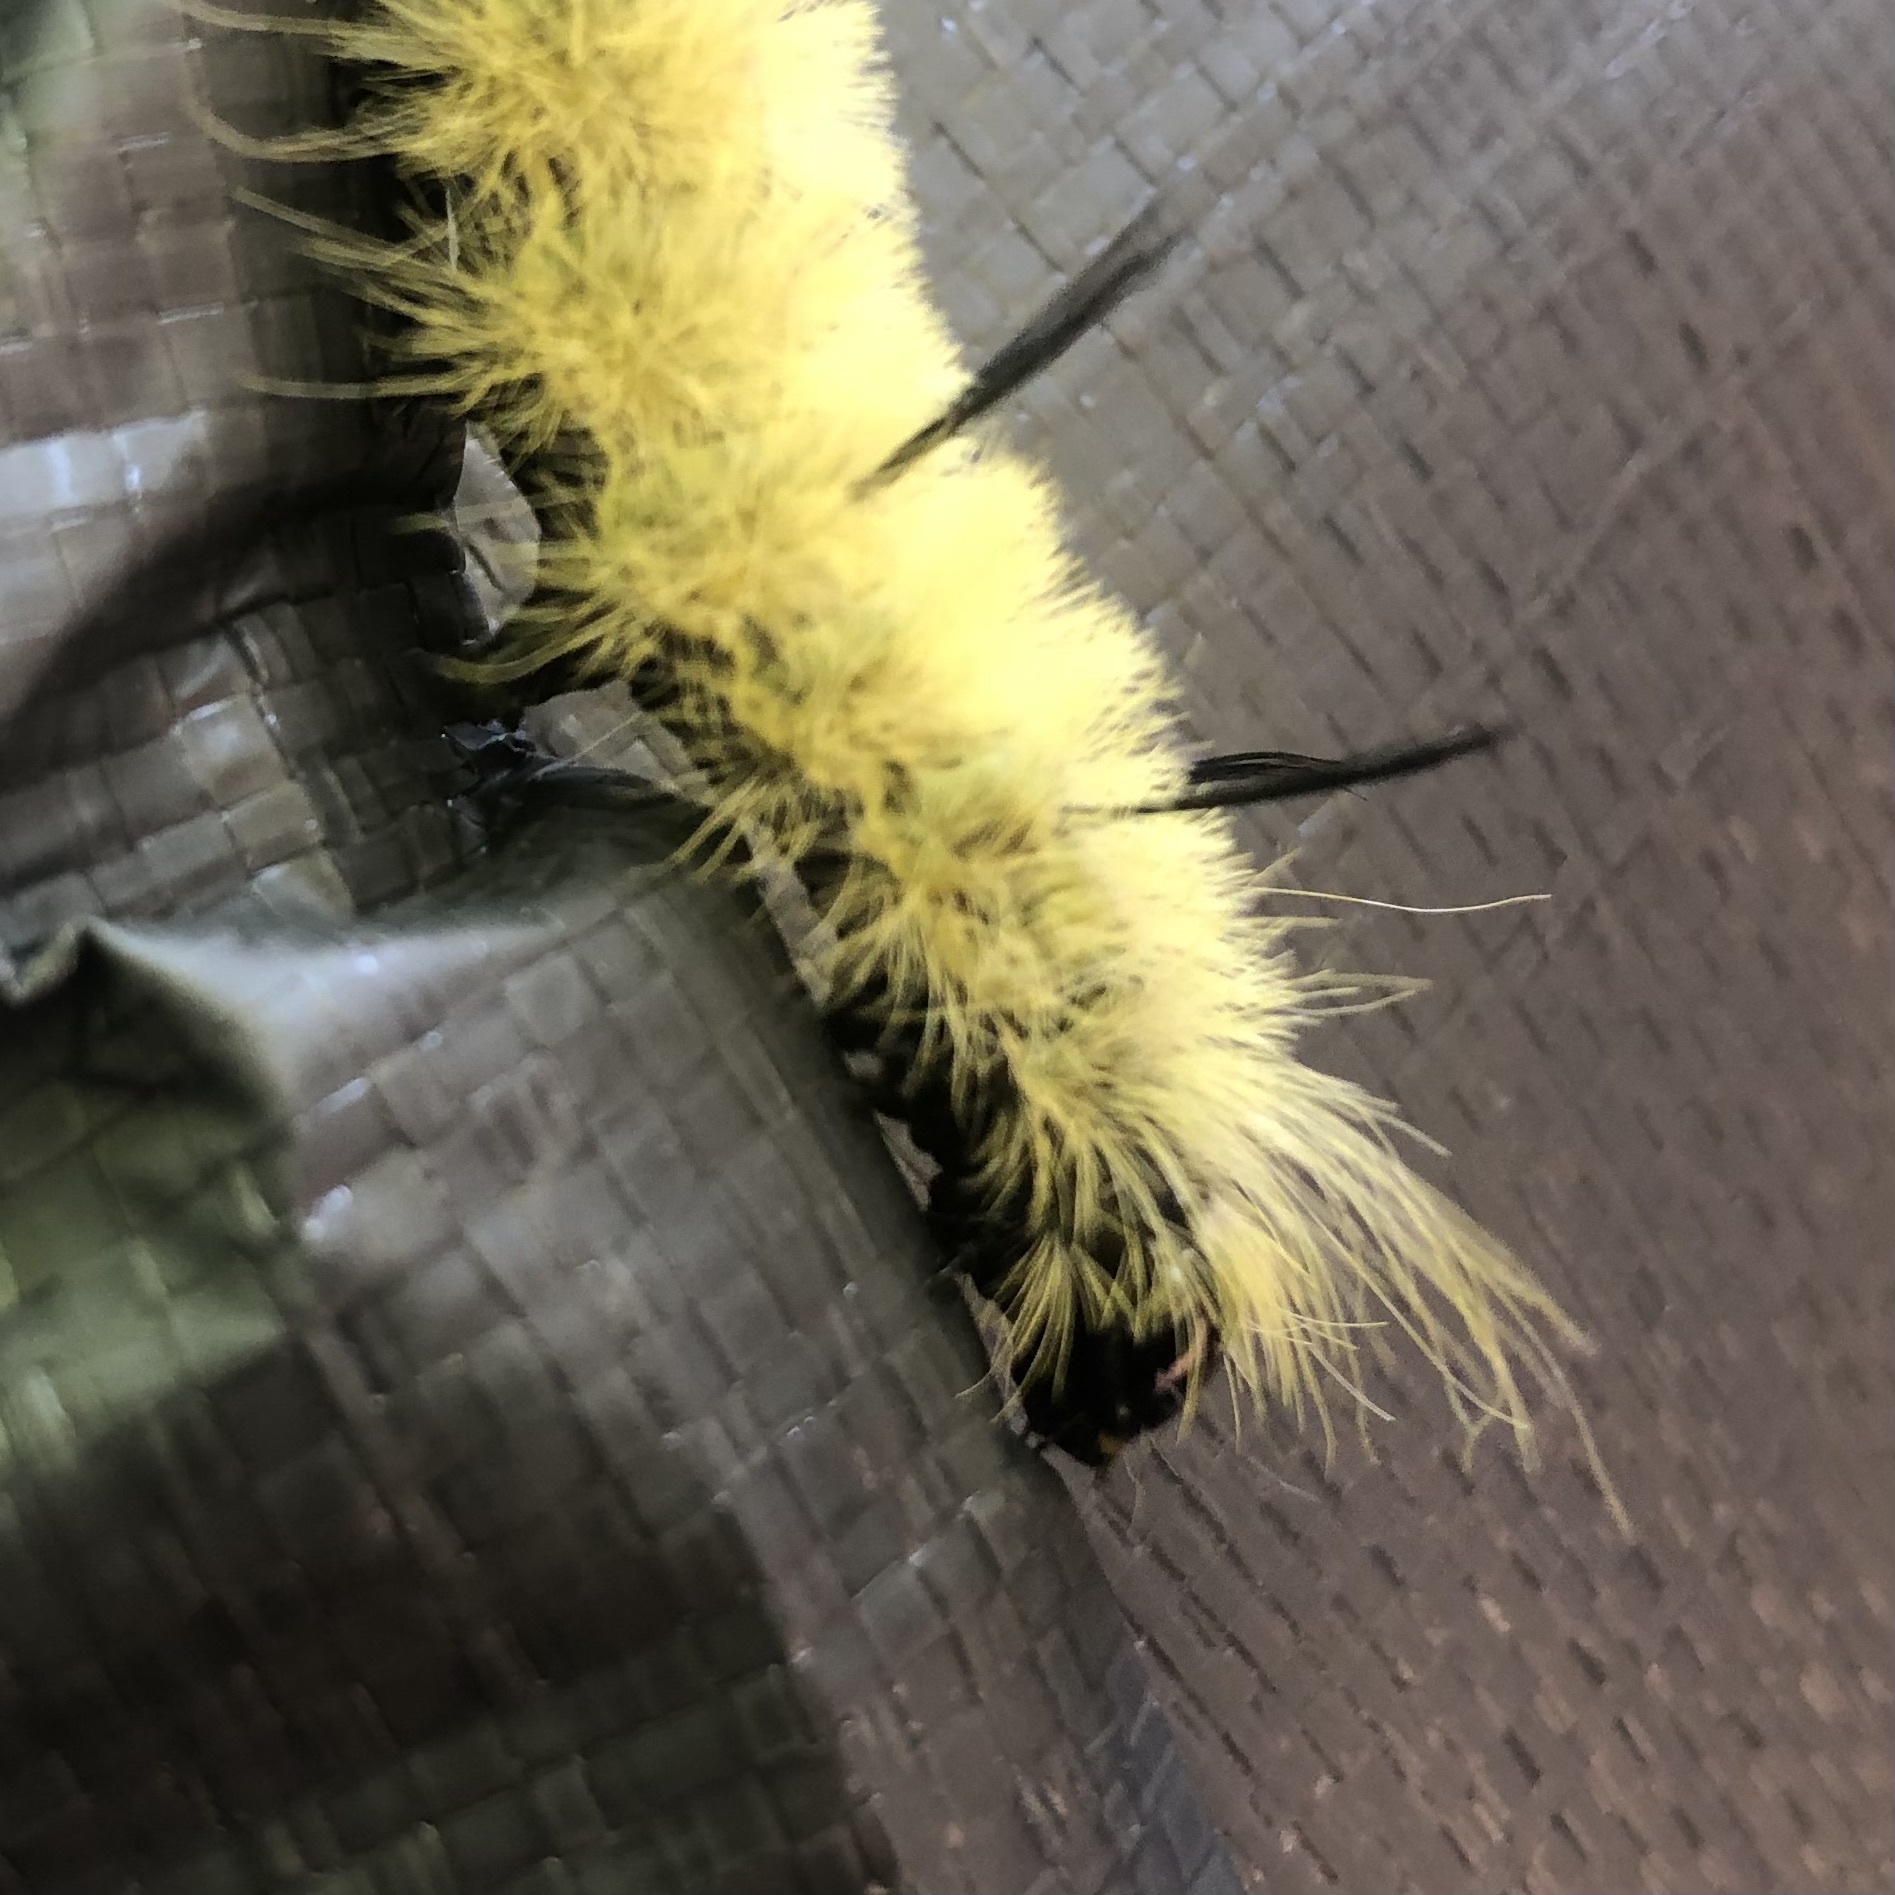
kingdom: Animalia
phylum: Arthropoda
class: Insecta
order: Lepidoptera
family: Noctuidae
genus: Acronicta
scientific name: Acronicta americana
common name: American dagger
